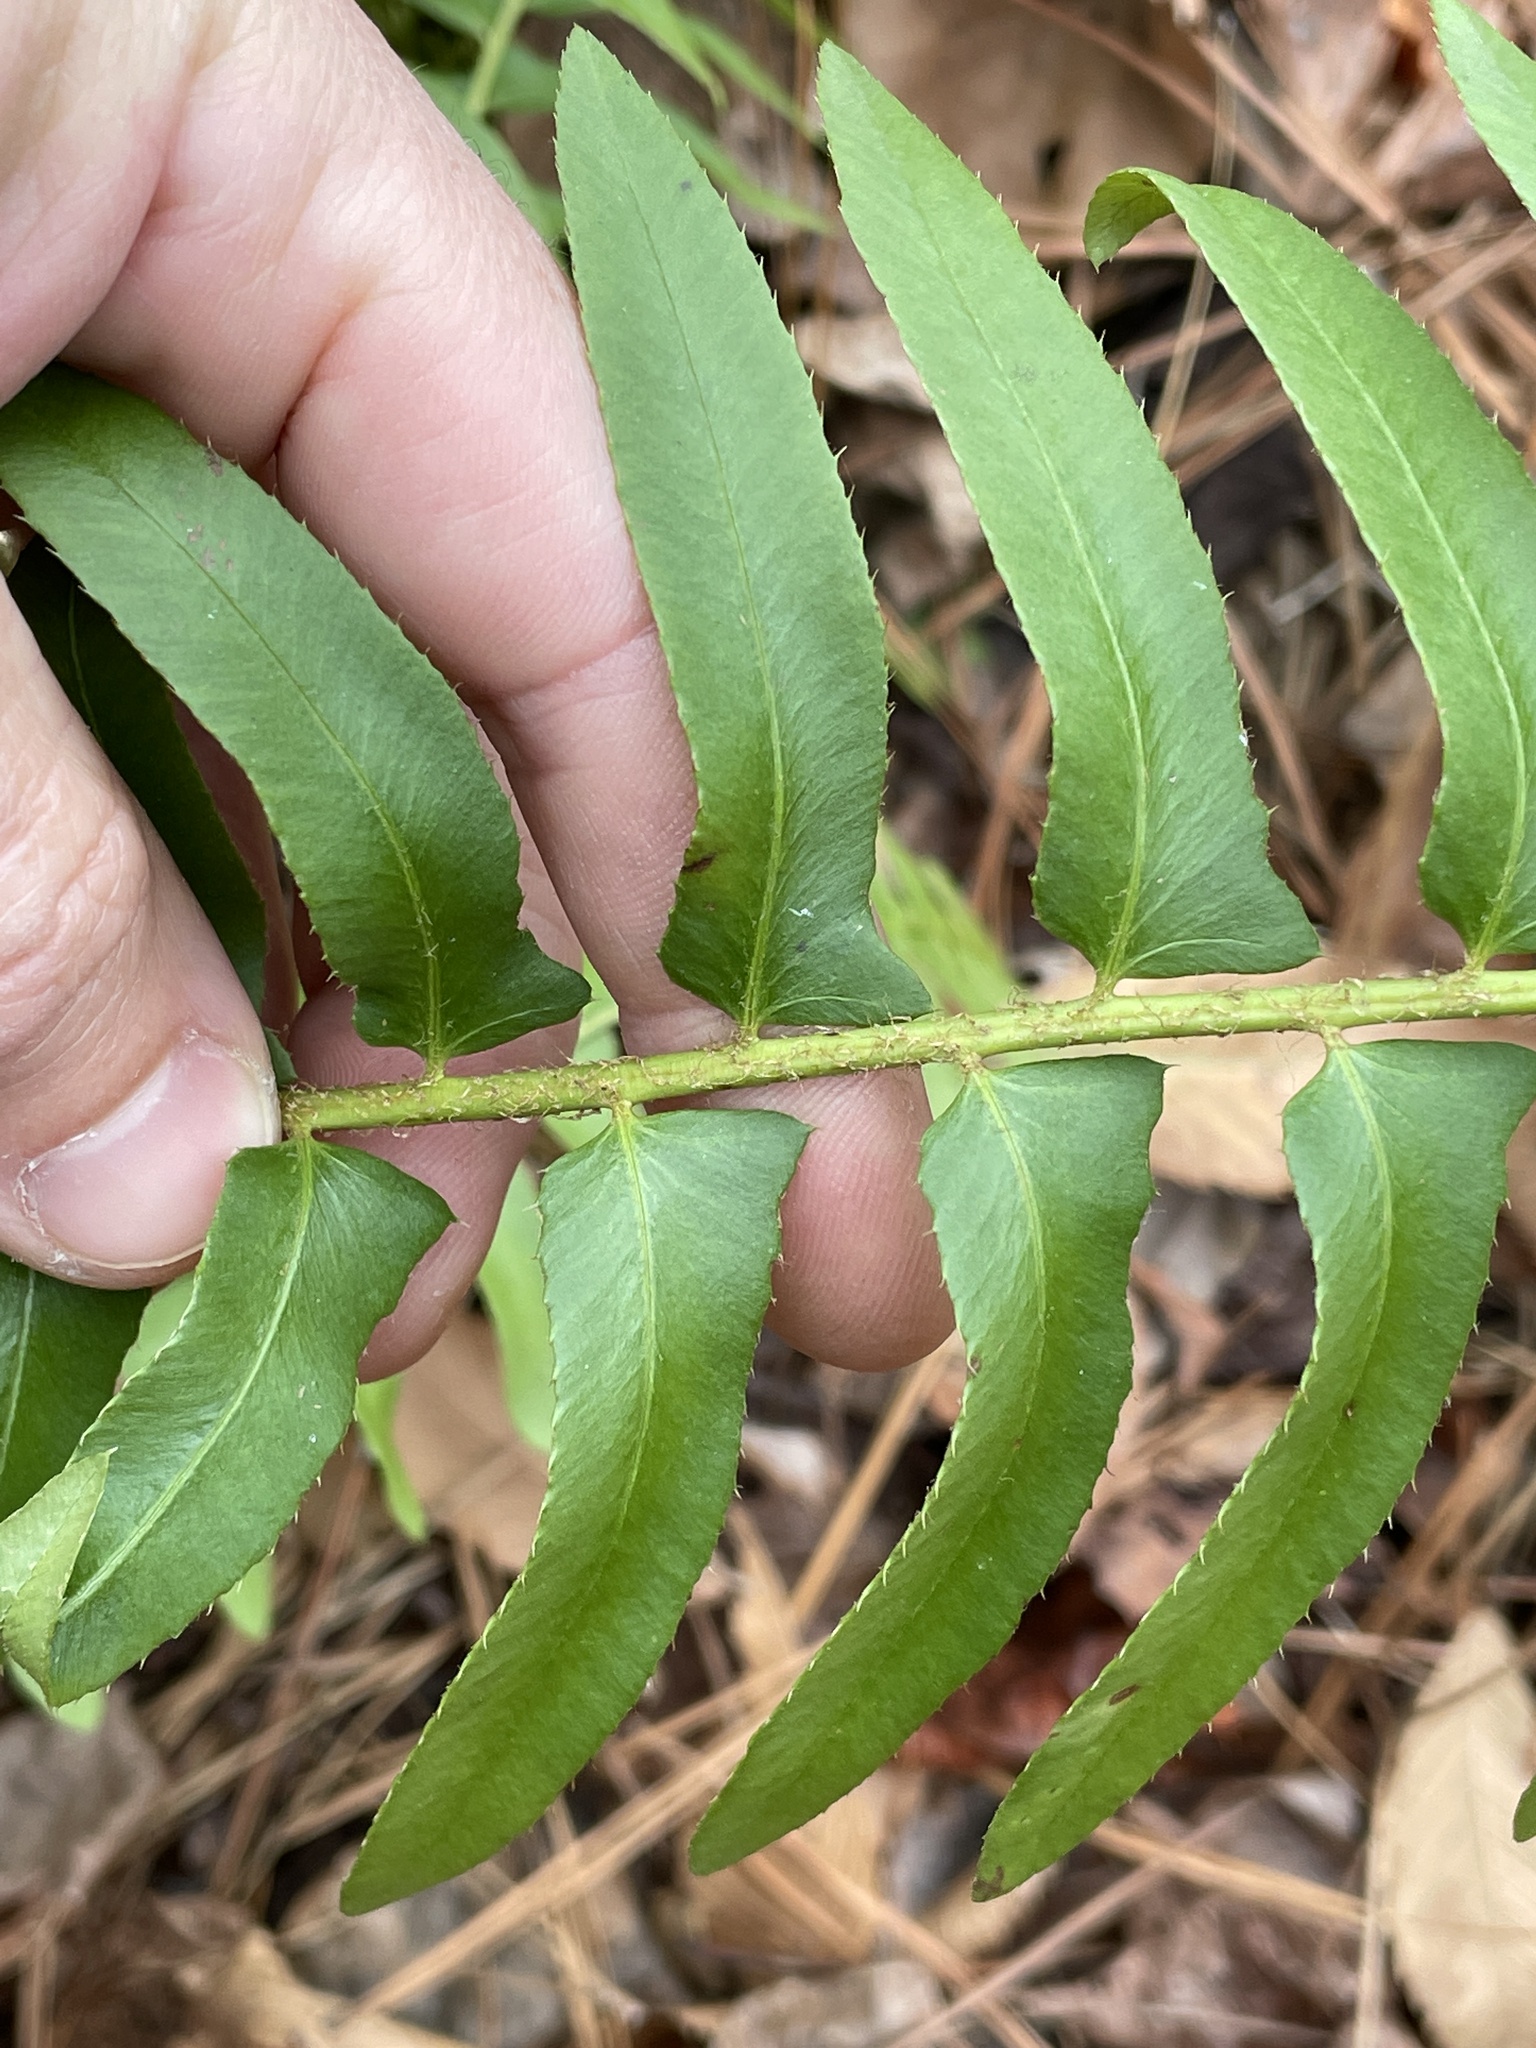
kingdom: Plantae
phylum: Tracheophyta
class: Polypodiopsida
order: Polypodiales
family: Dryopteridaceae
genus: Polystichum
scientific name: Polystichum acrostichoides
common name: Christmas fern
